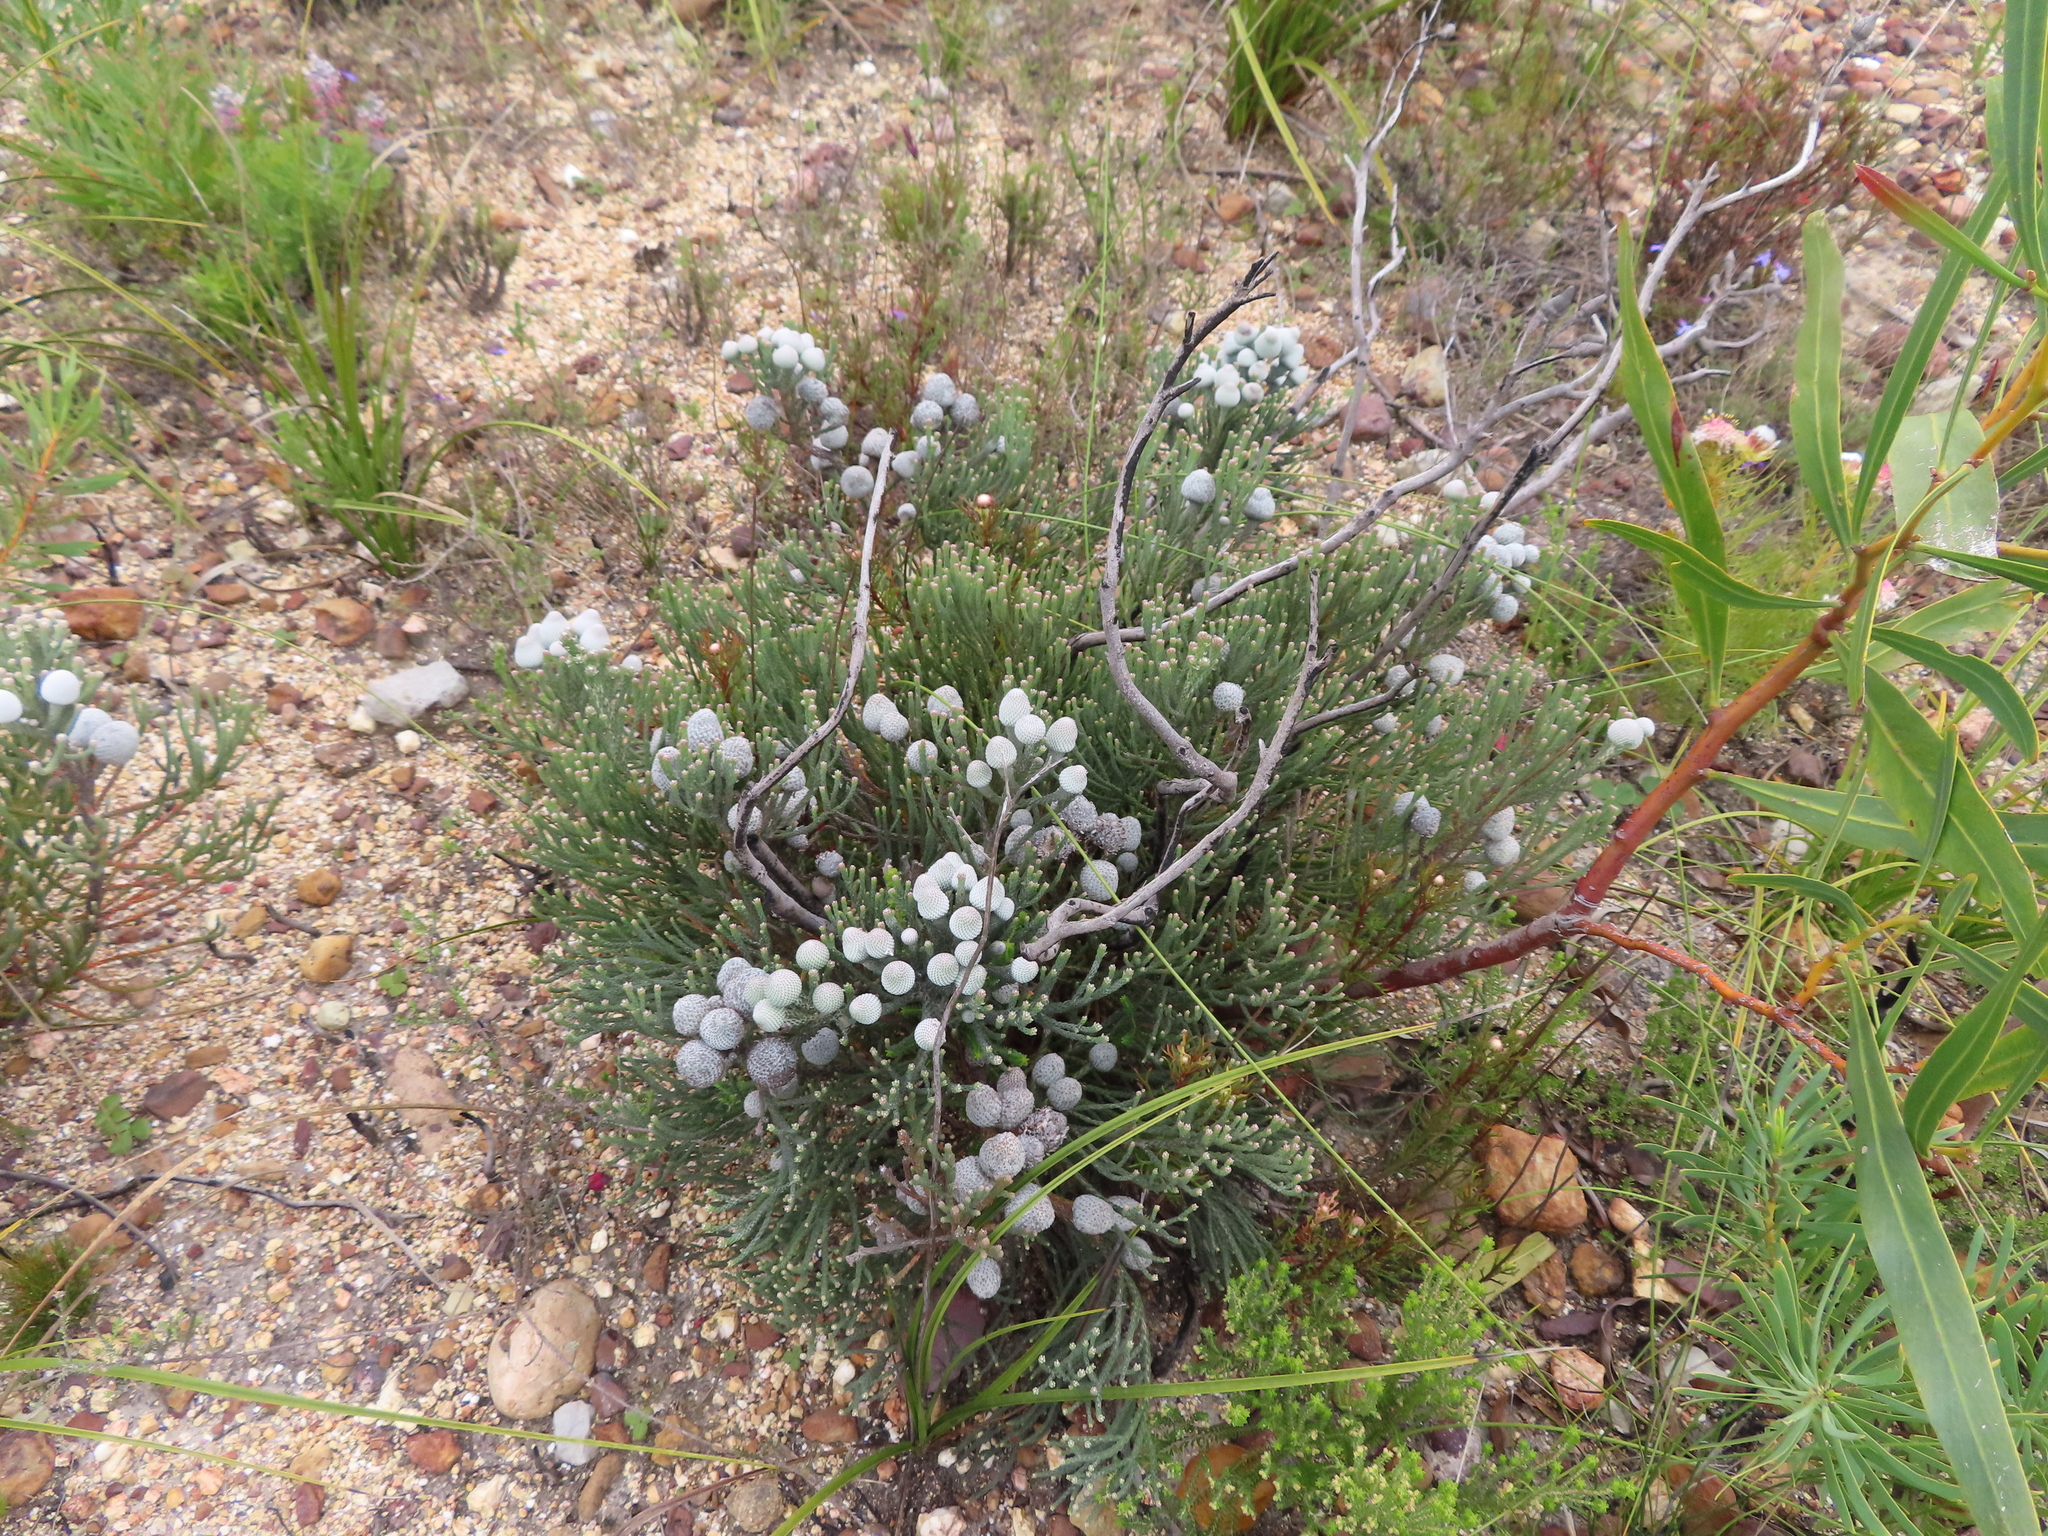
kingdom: Plantae
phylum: Tracheophyta
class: Magnoliopsida
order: Bruniales
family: Bruniaceae
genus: Brunia
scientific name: Brunia noduliflora
